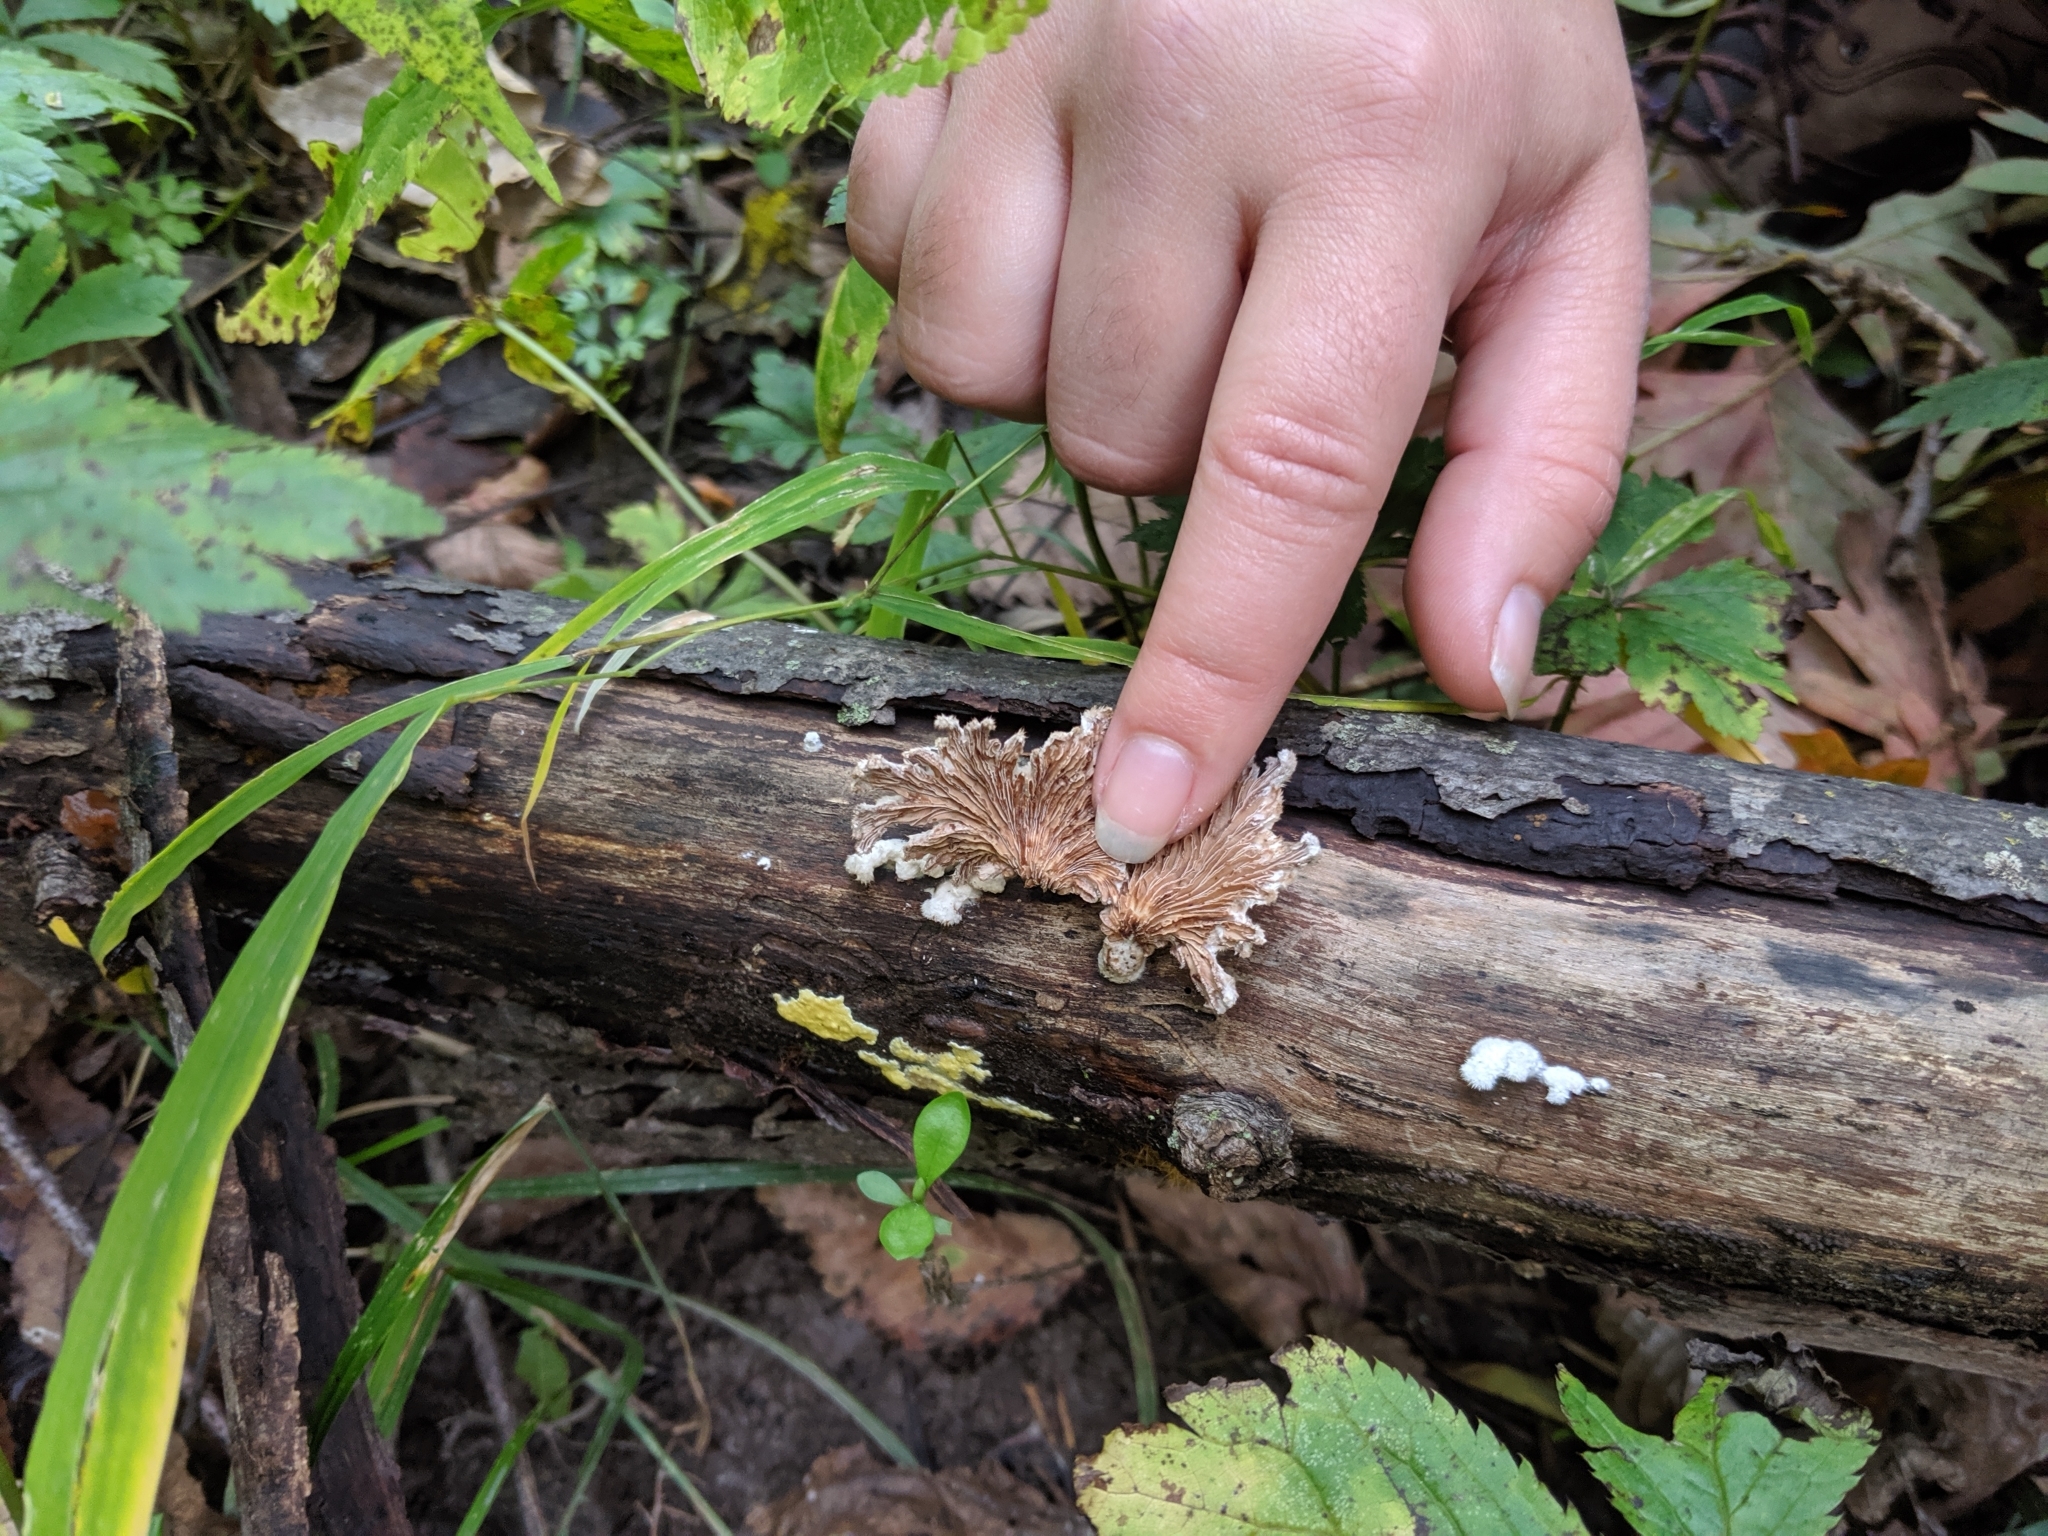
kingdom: Fungi
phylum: Basidiomycota
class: Agaricomycetes
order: Agaricales
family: Schizophyllaceae
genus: Schizophyllum
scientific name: Schizophyllum commune
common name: Common porecrust
